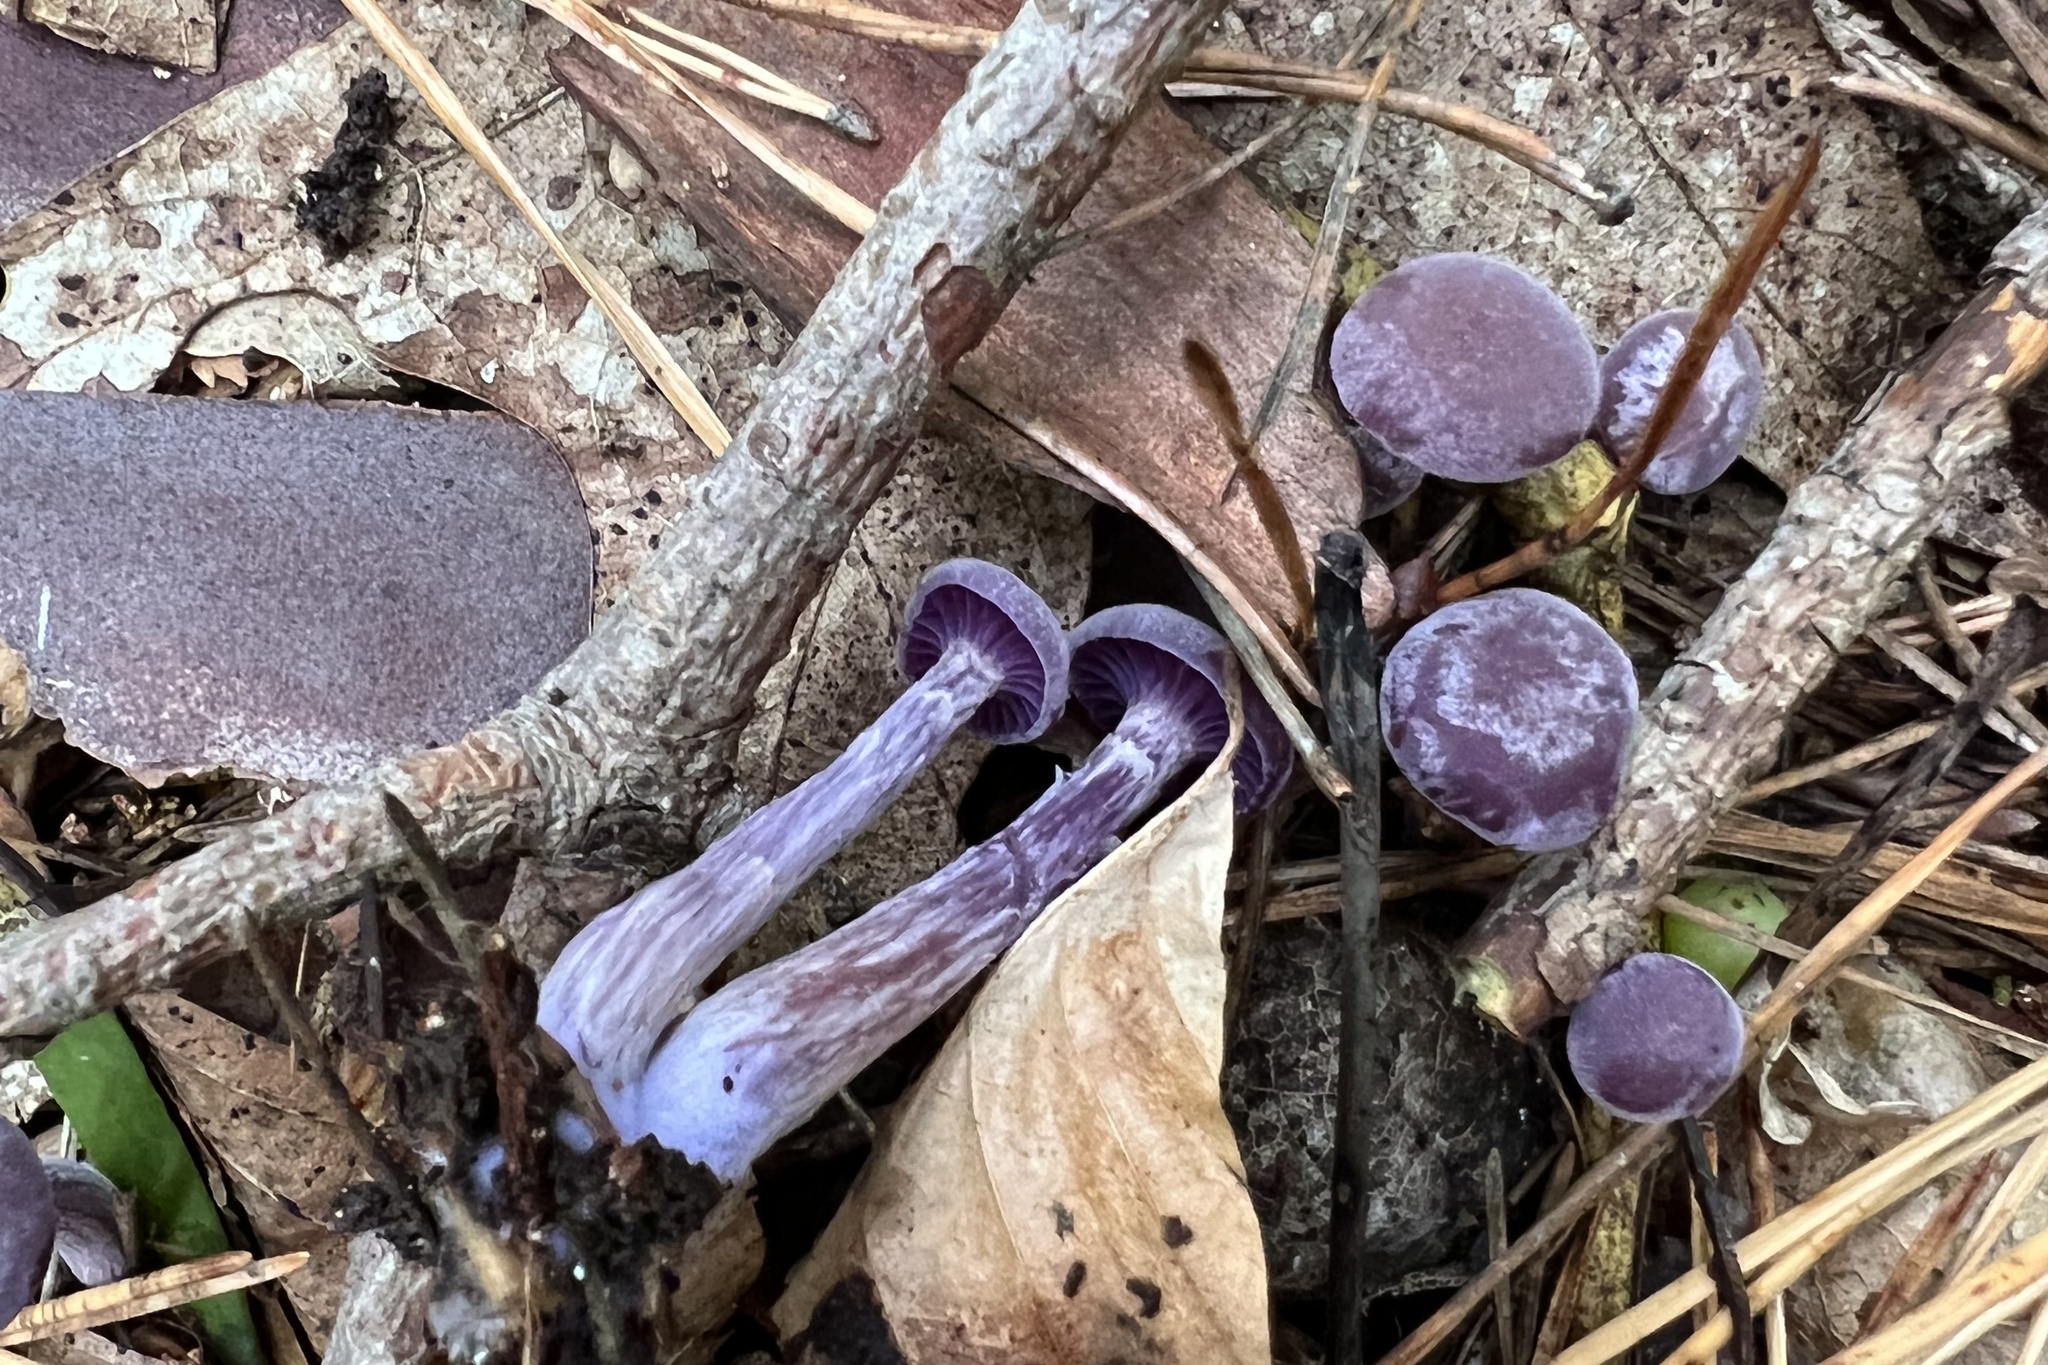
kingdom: Fungi
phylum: Basidiomycota
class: Agaricomycetes
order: Agaricales
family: Hydnangiaceae
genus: Laccaria
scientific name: Laccaria amethystina
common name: Amethyst deceiver
